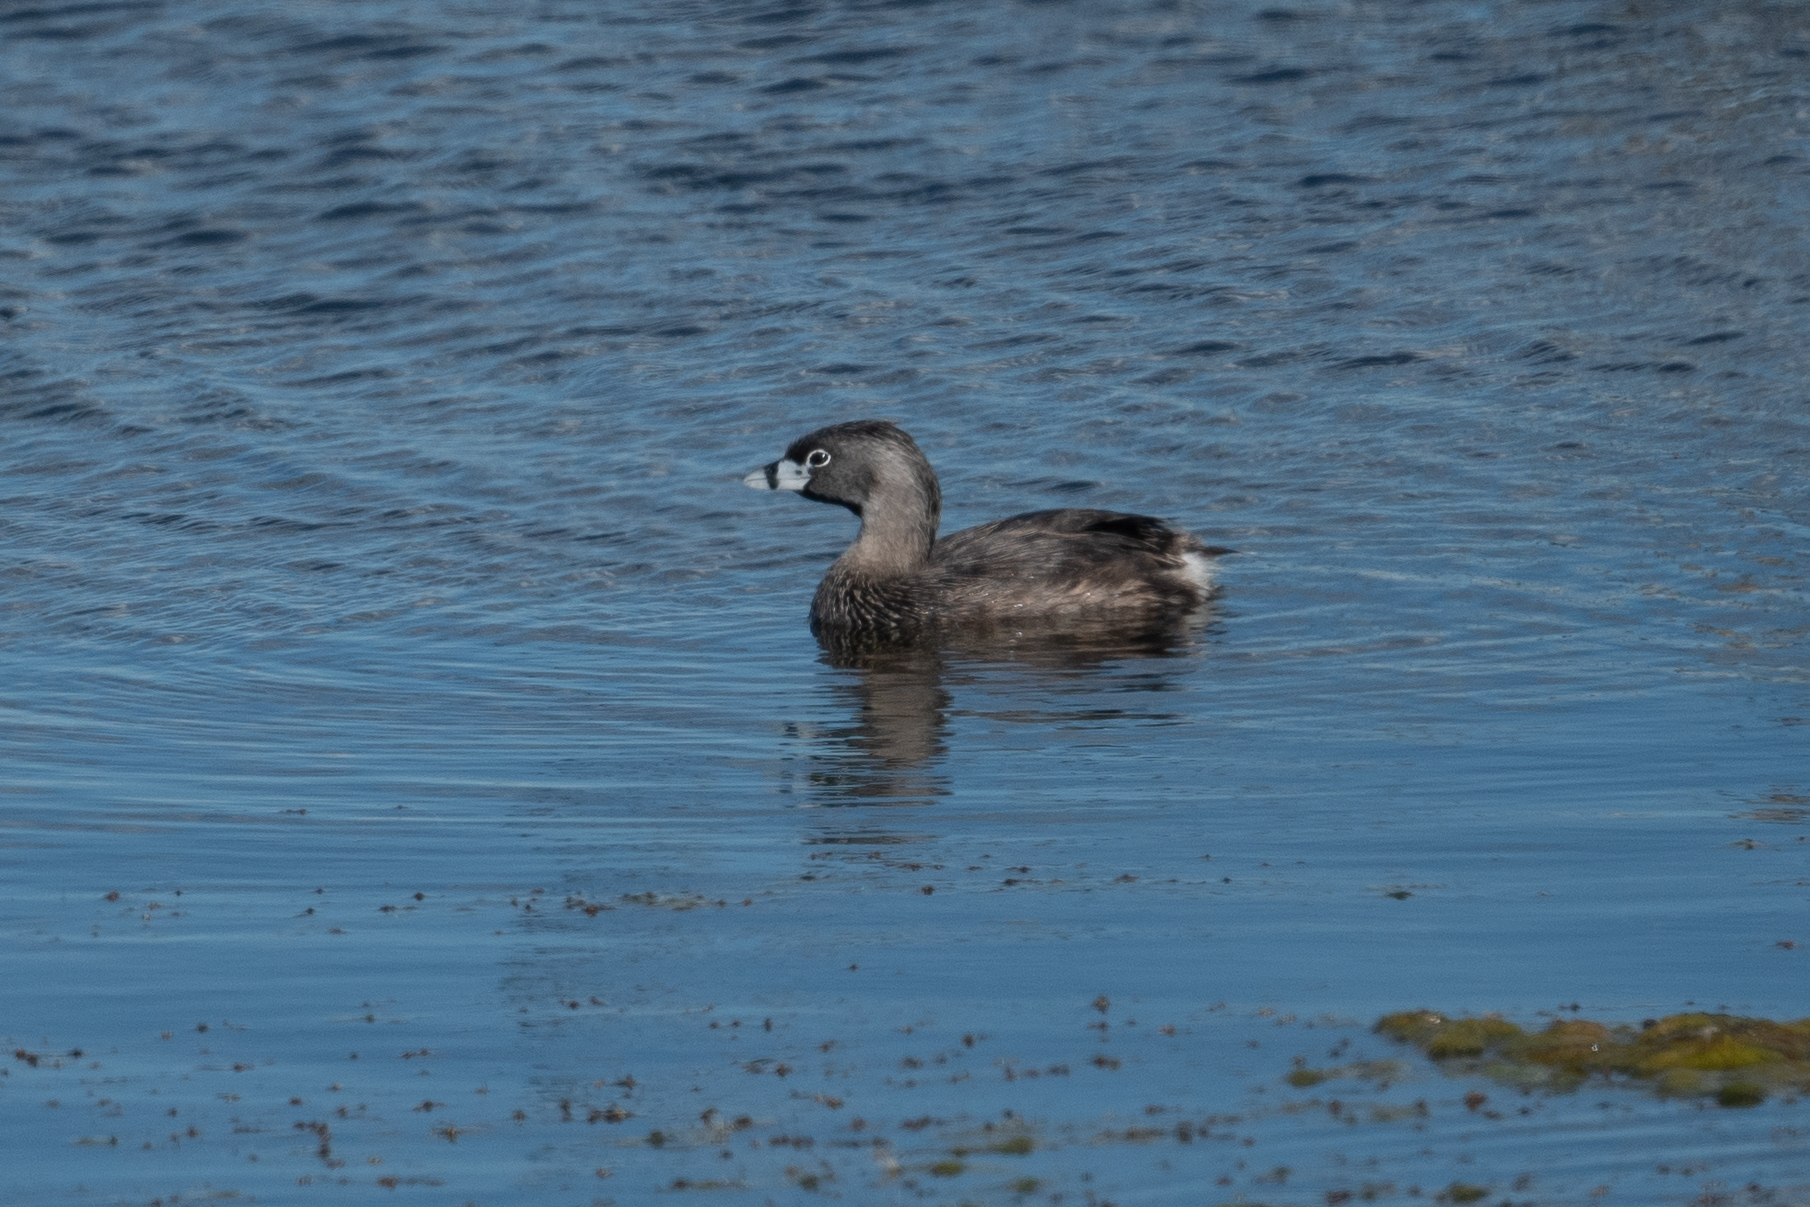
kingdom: Animalia
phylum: Chordata
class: Aves
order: Podicipediformes
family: Podicipedidae
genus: Podilymbus
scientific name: Podilymbus podiceps
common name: Pied-billed grebe
